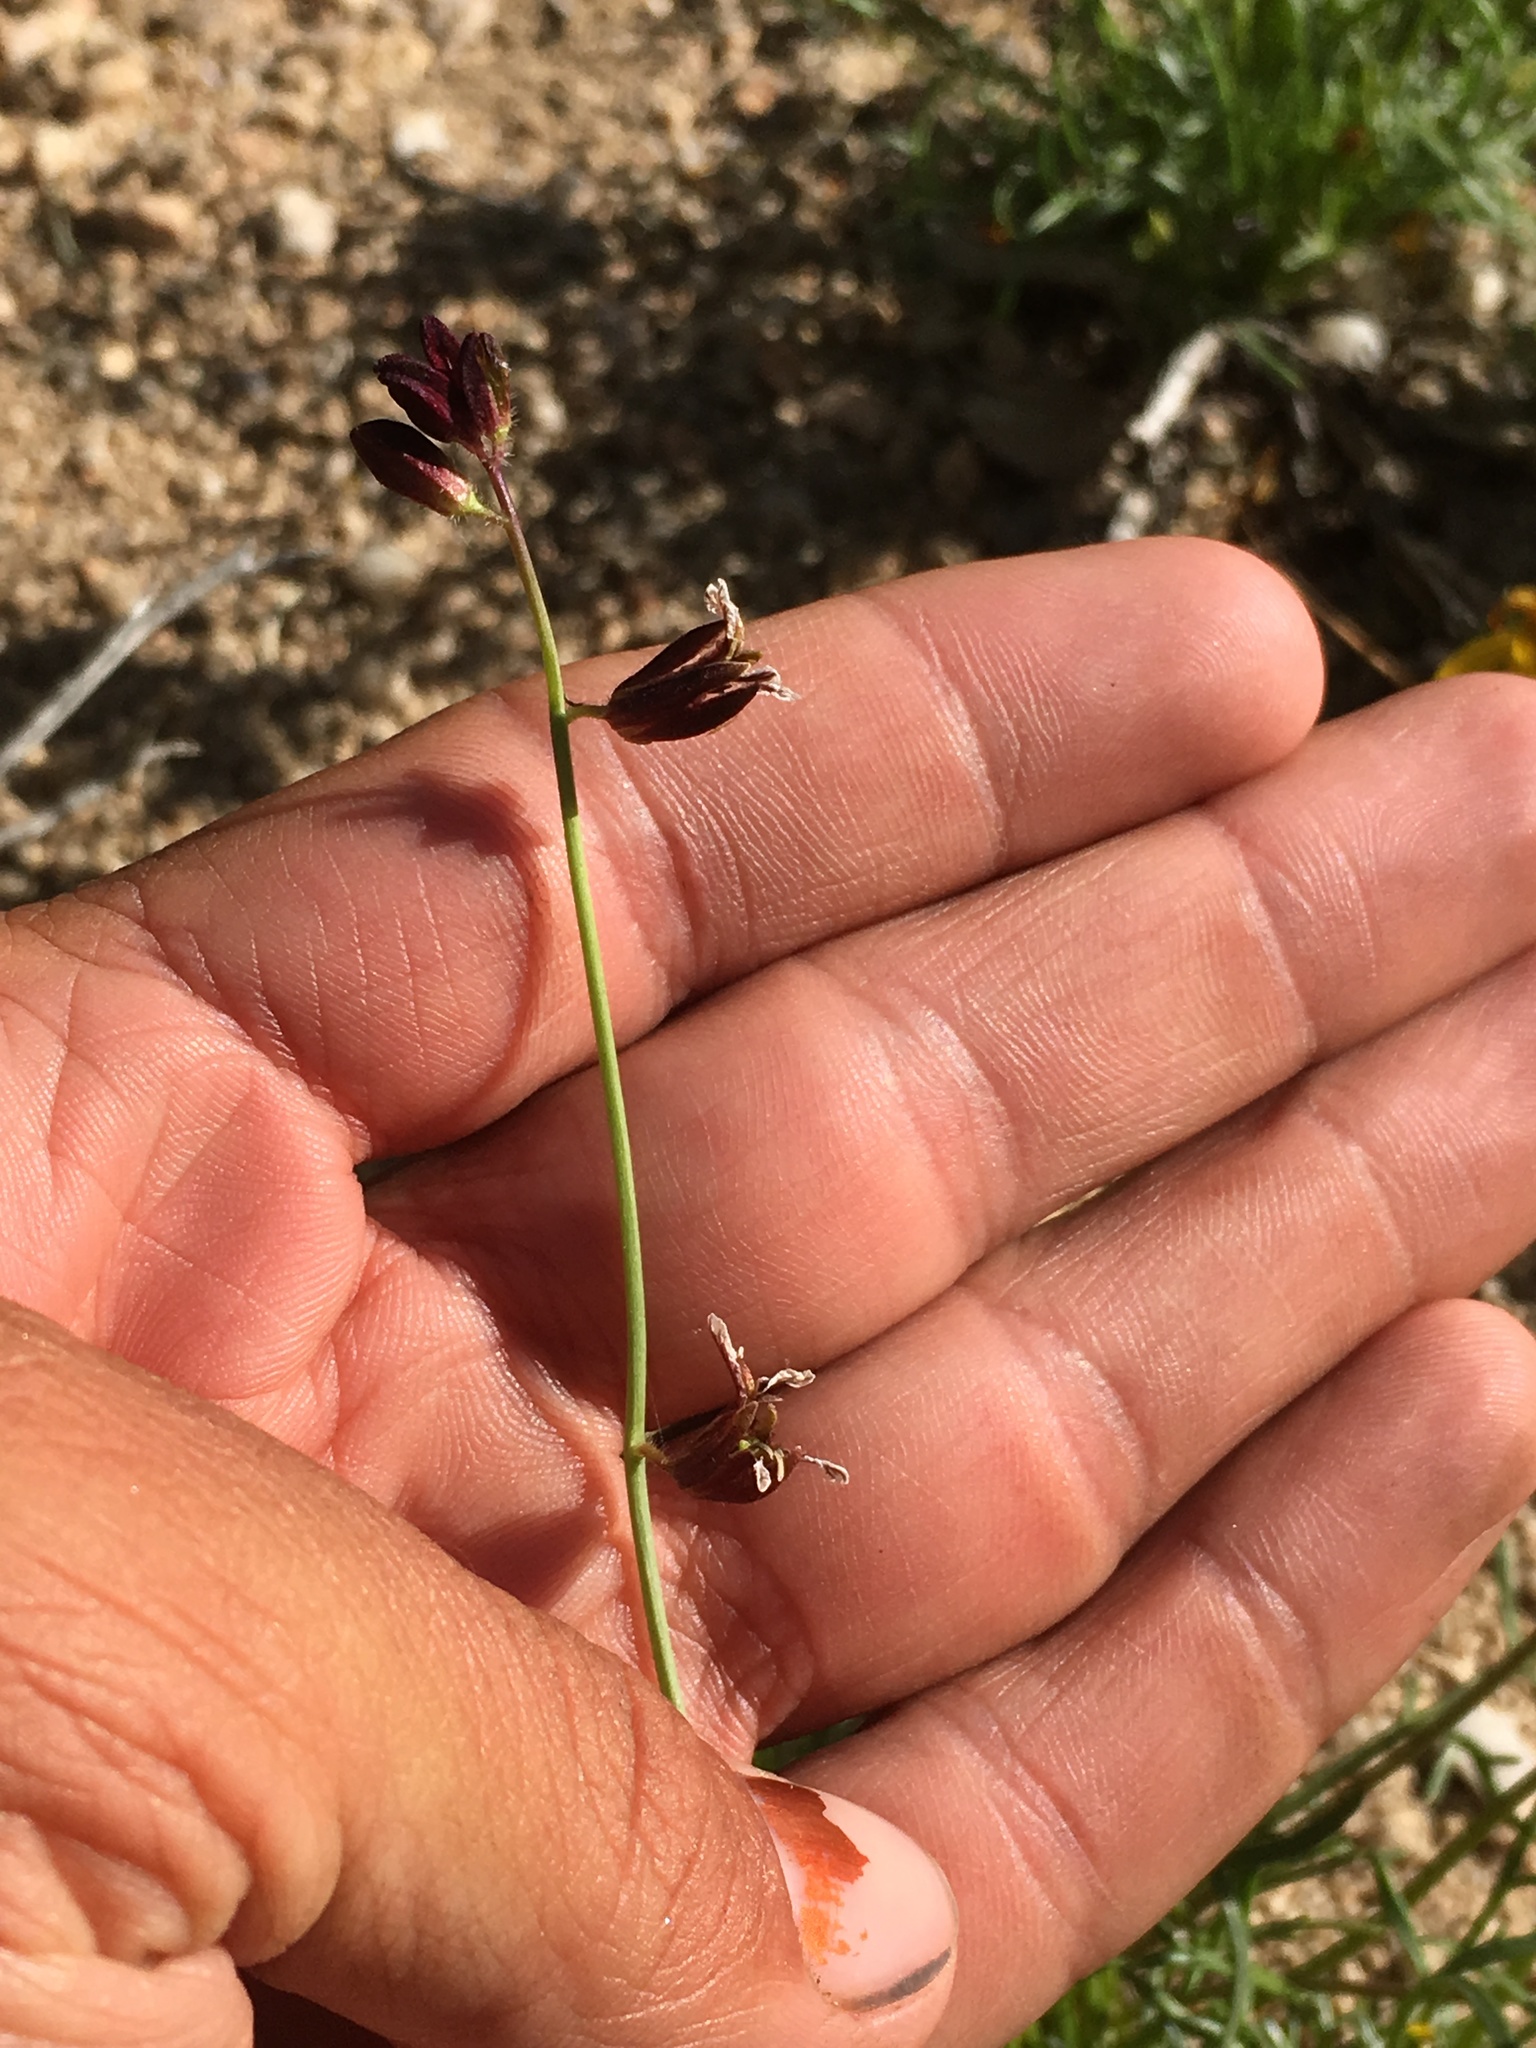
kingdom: Plantae
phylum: Tracheophyta
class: Magnoliopsida
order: Brassicales
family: Brassicaceae
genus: Streptanthus
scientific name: Streptanthus coulteri
